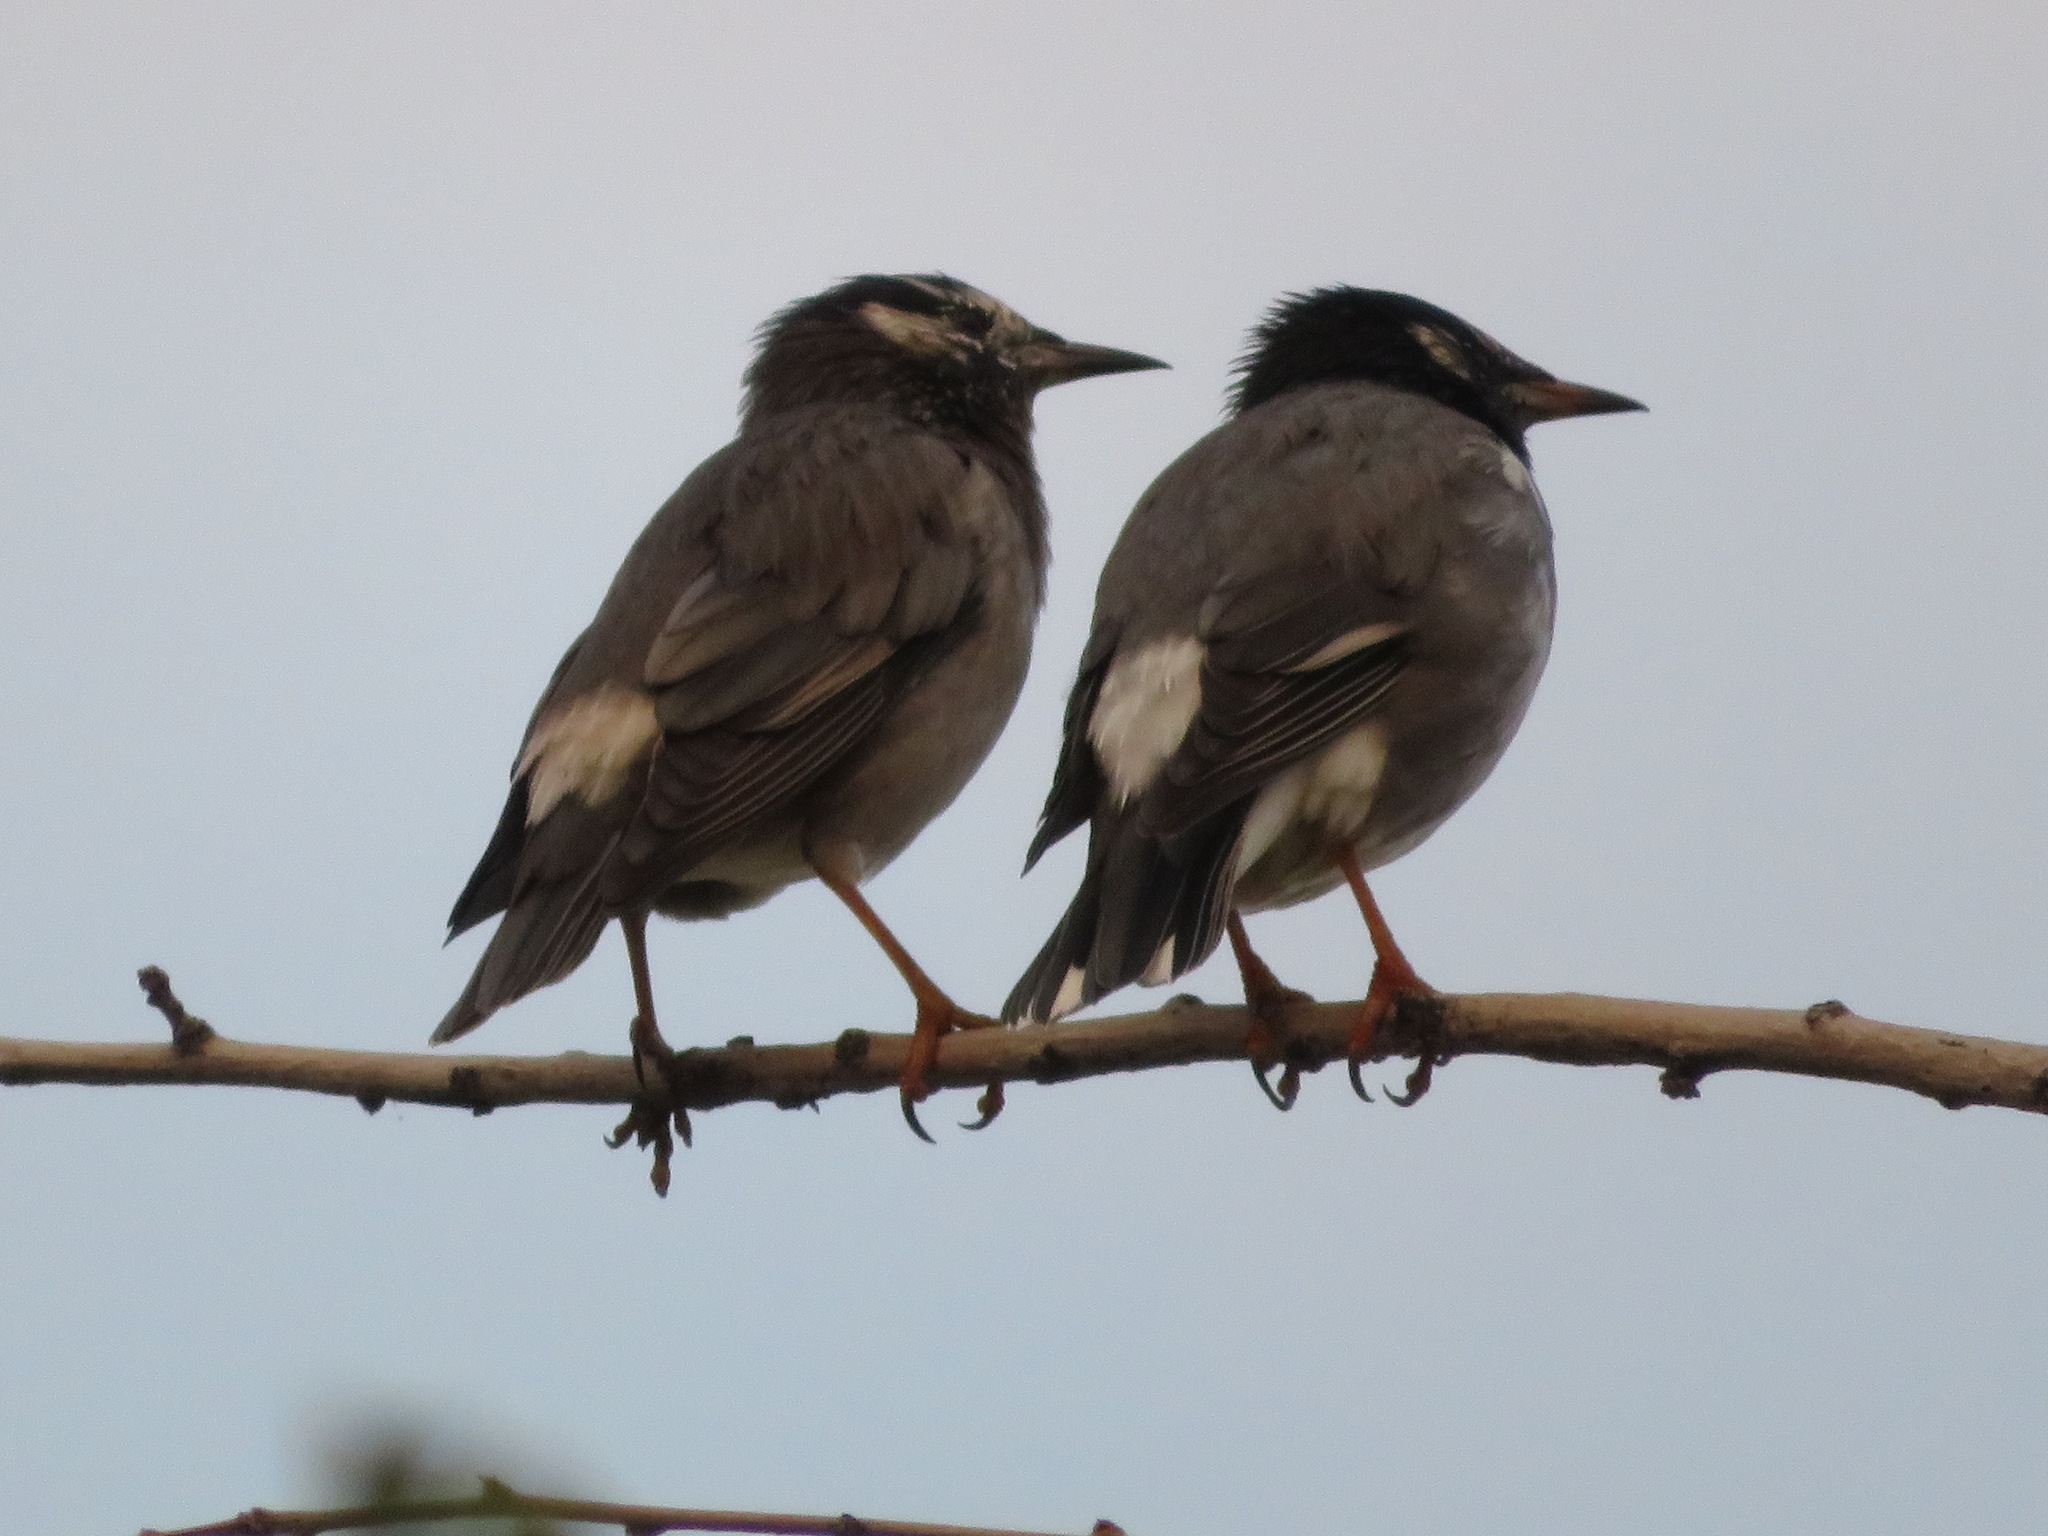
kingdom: Animalia
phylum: Chordata
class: Aves
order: Passeriformes
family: Sturnidae
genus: Spodiopsar
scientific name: Spodiopsar cineraceus
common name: White-cheeked starling
